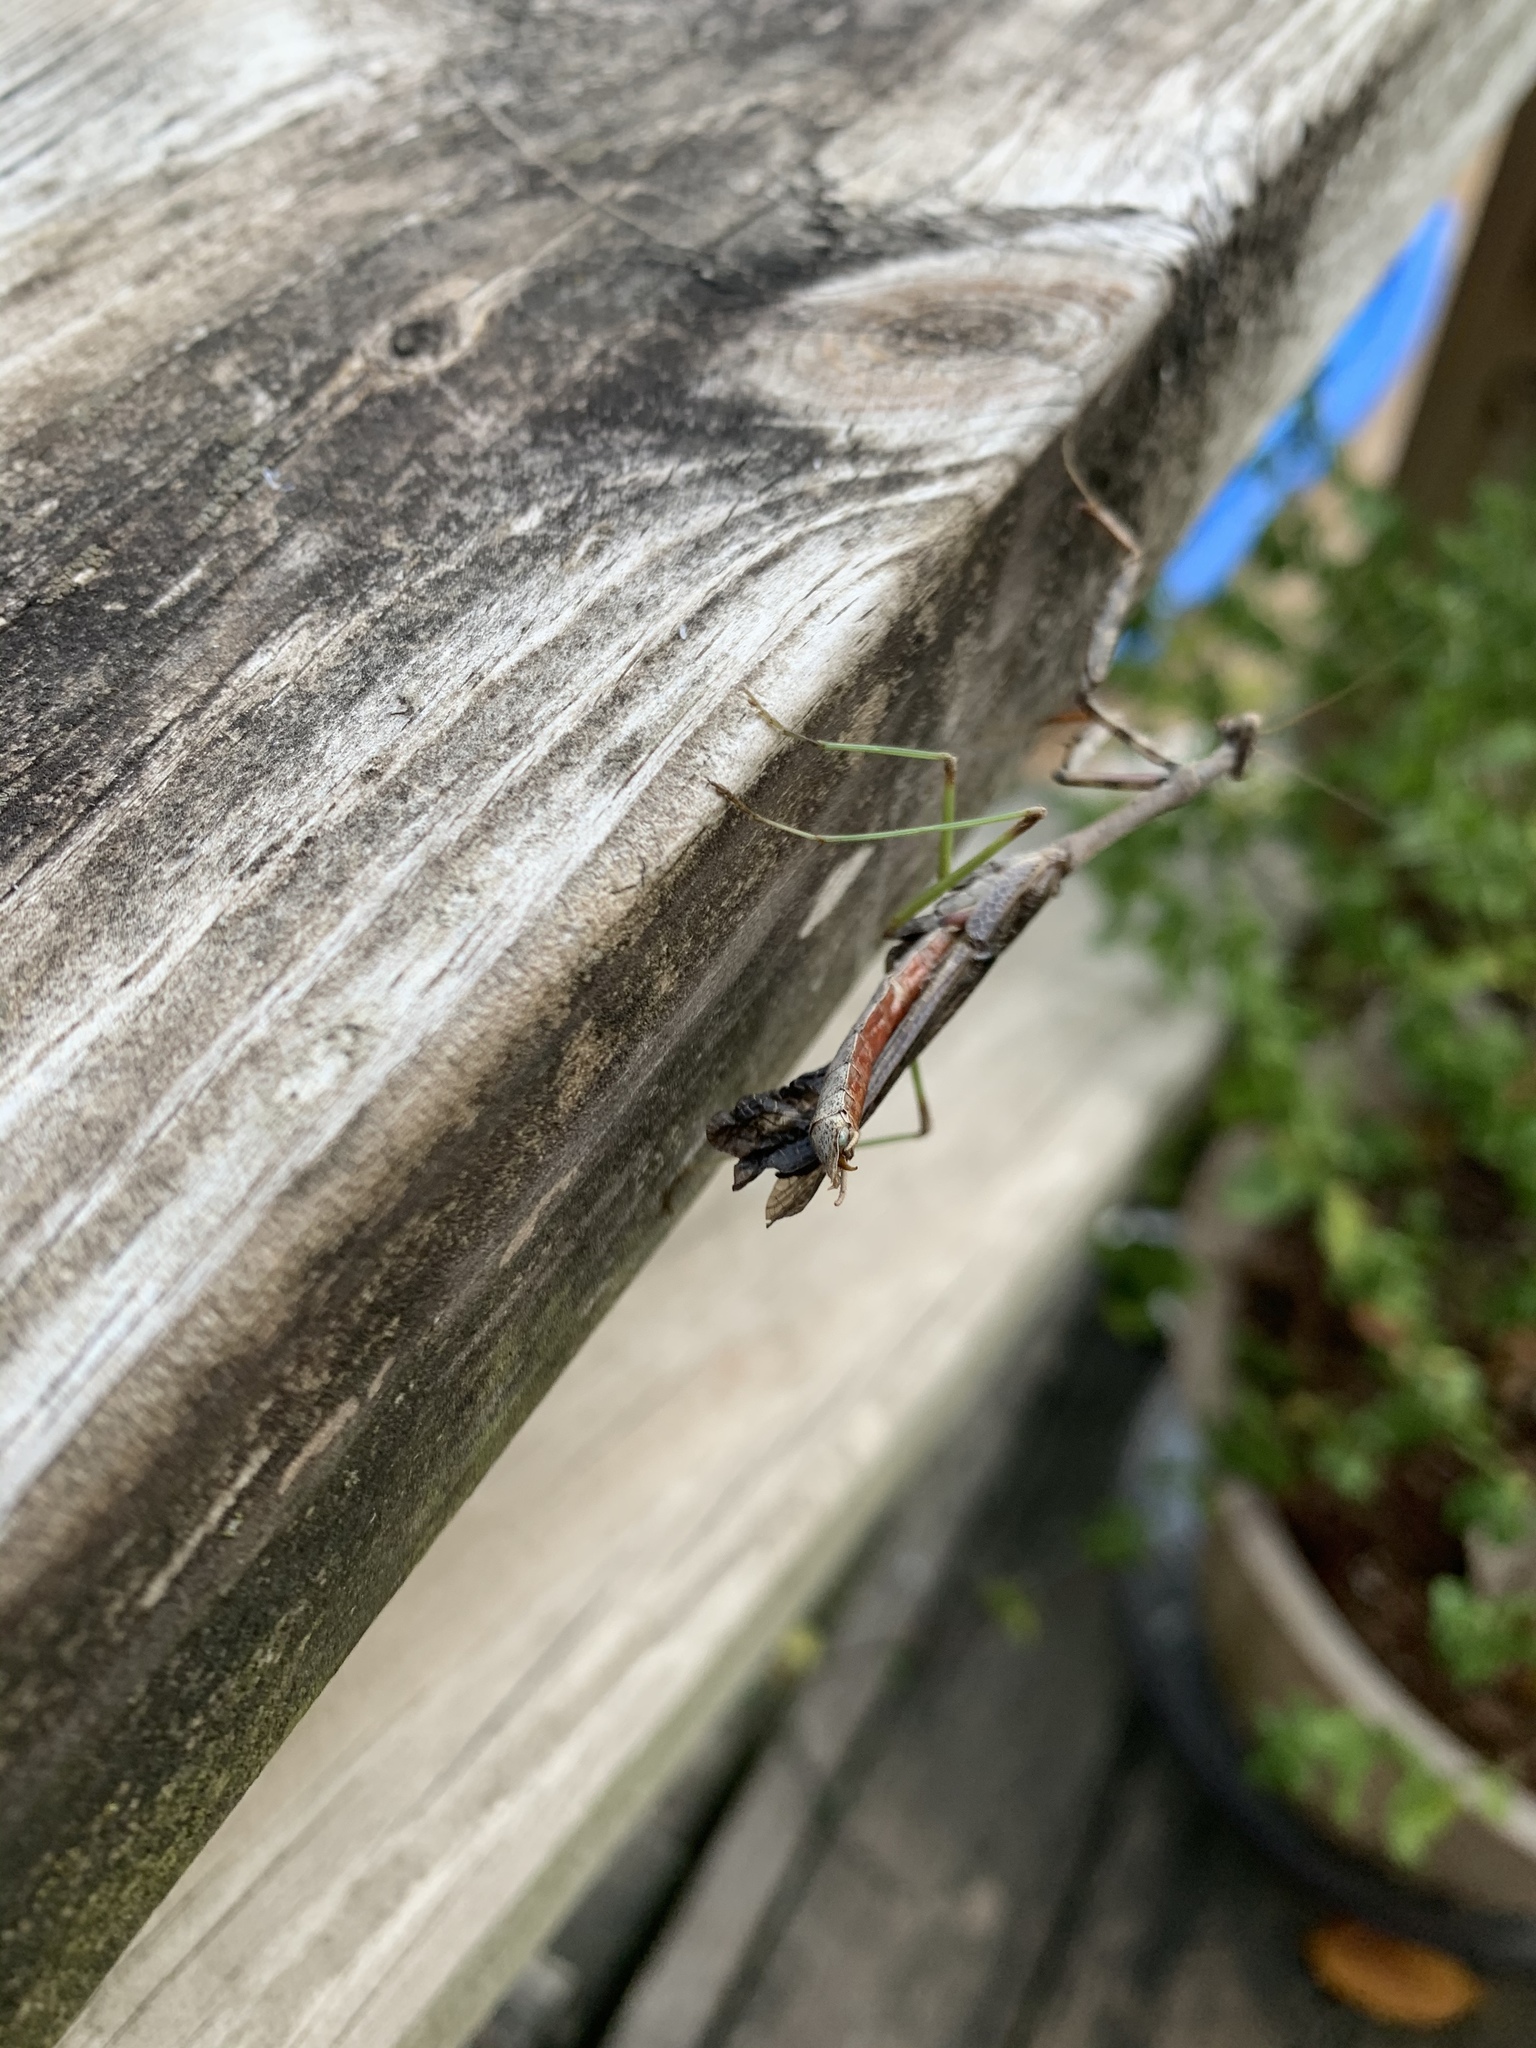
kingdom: Animalia
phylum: Arthropoda
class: Insecta
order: Mantodea
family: Mantidae
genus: Stagmomantis
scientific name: Stagmomantis carolina
